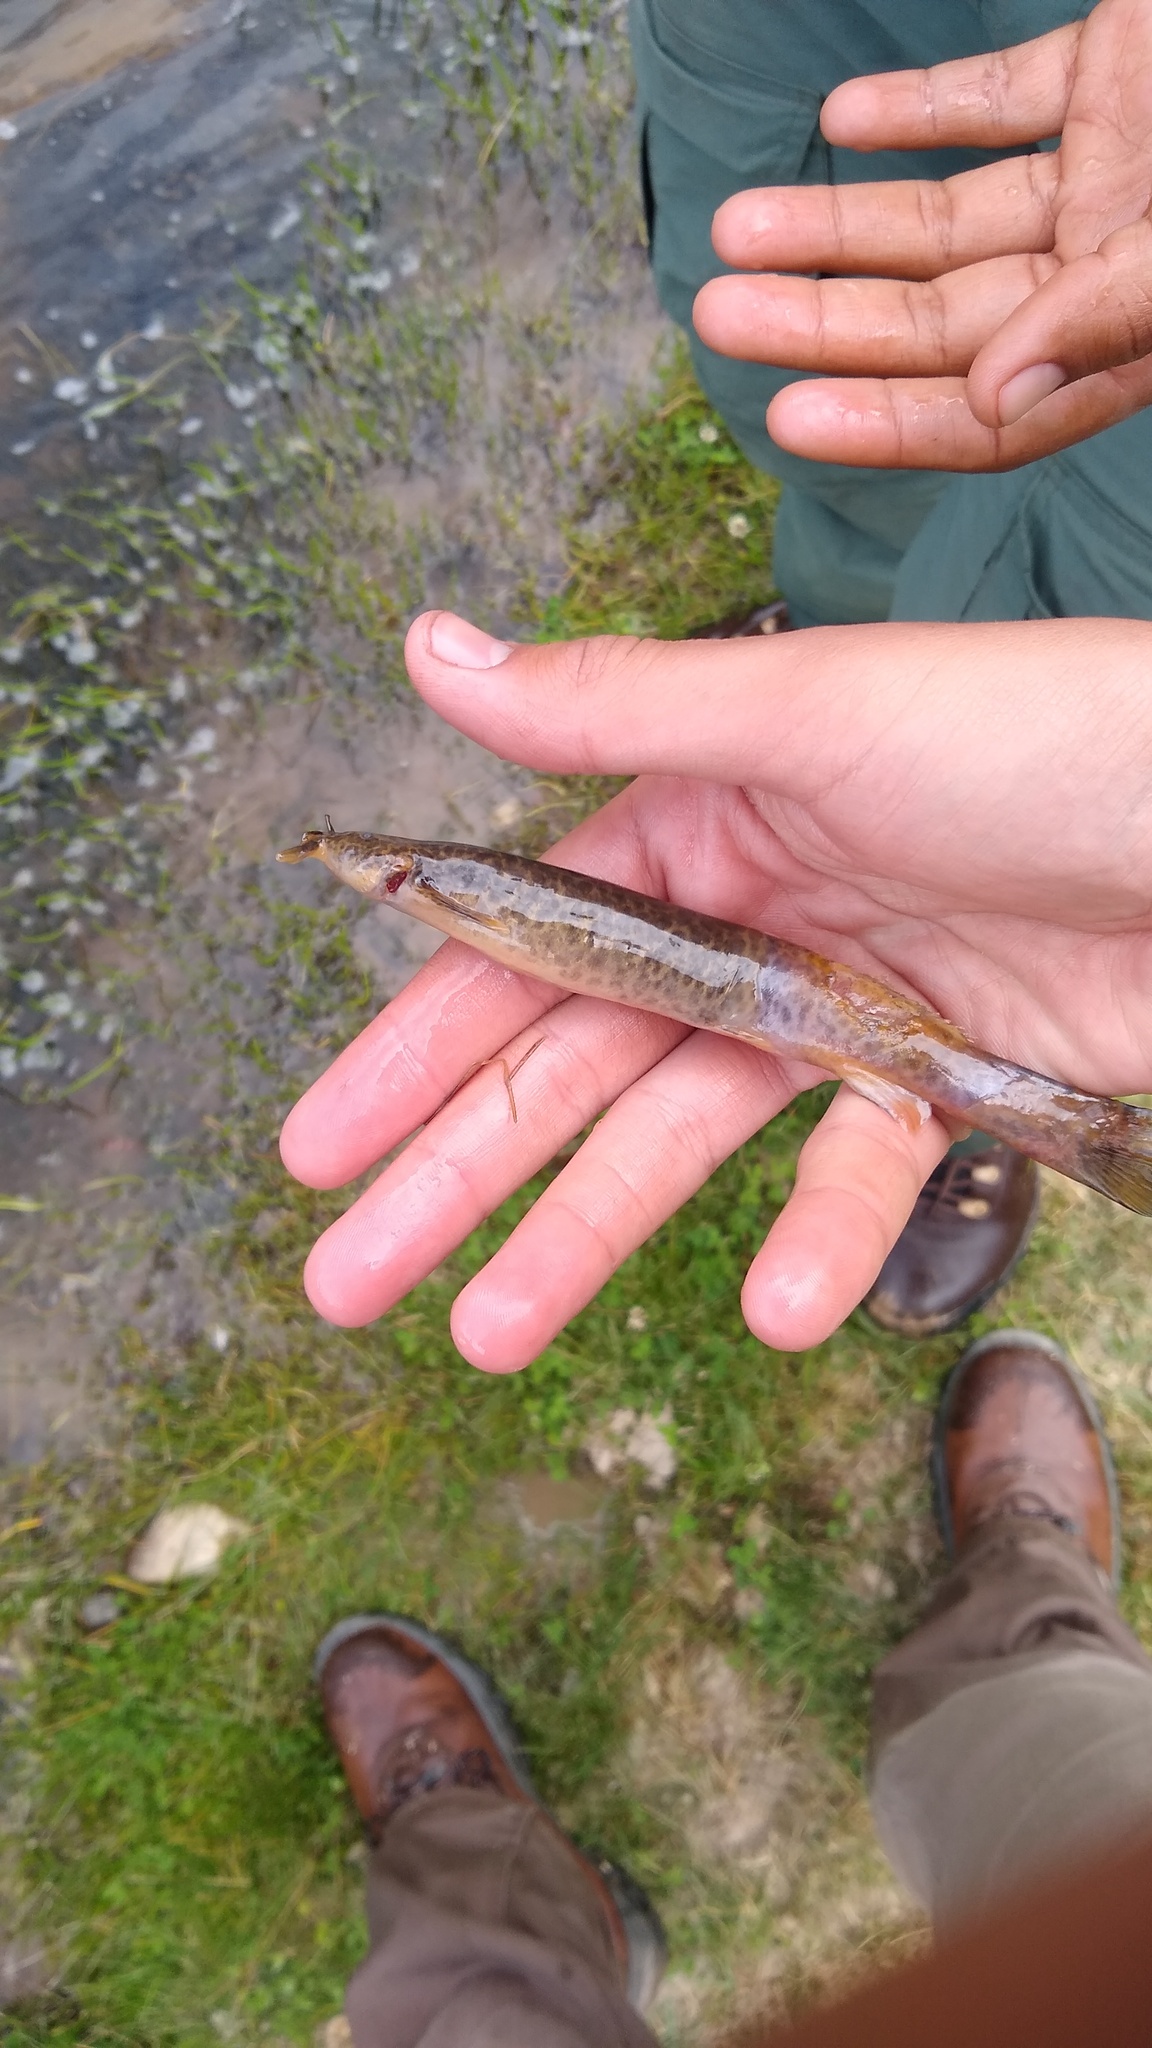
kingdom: Animalia
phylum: Chordata
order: Siluriformes
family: Trichomycteridae
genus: Hatcheria
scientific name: Hatcheria macraei
